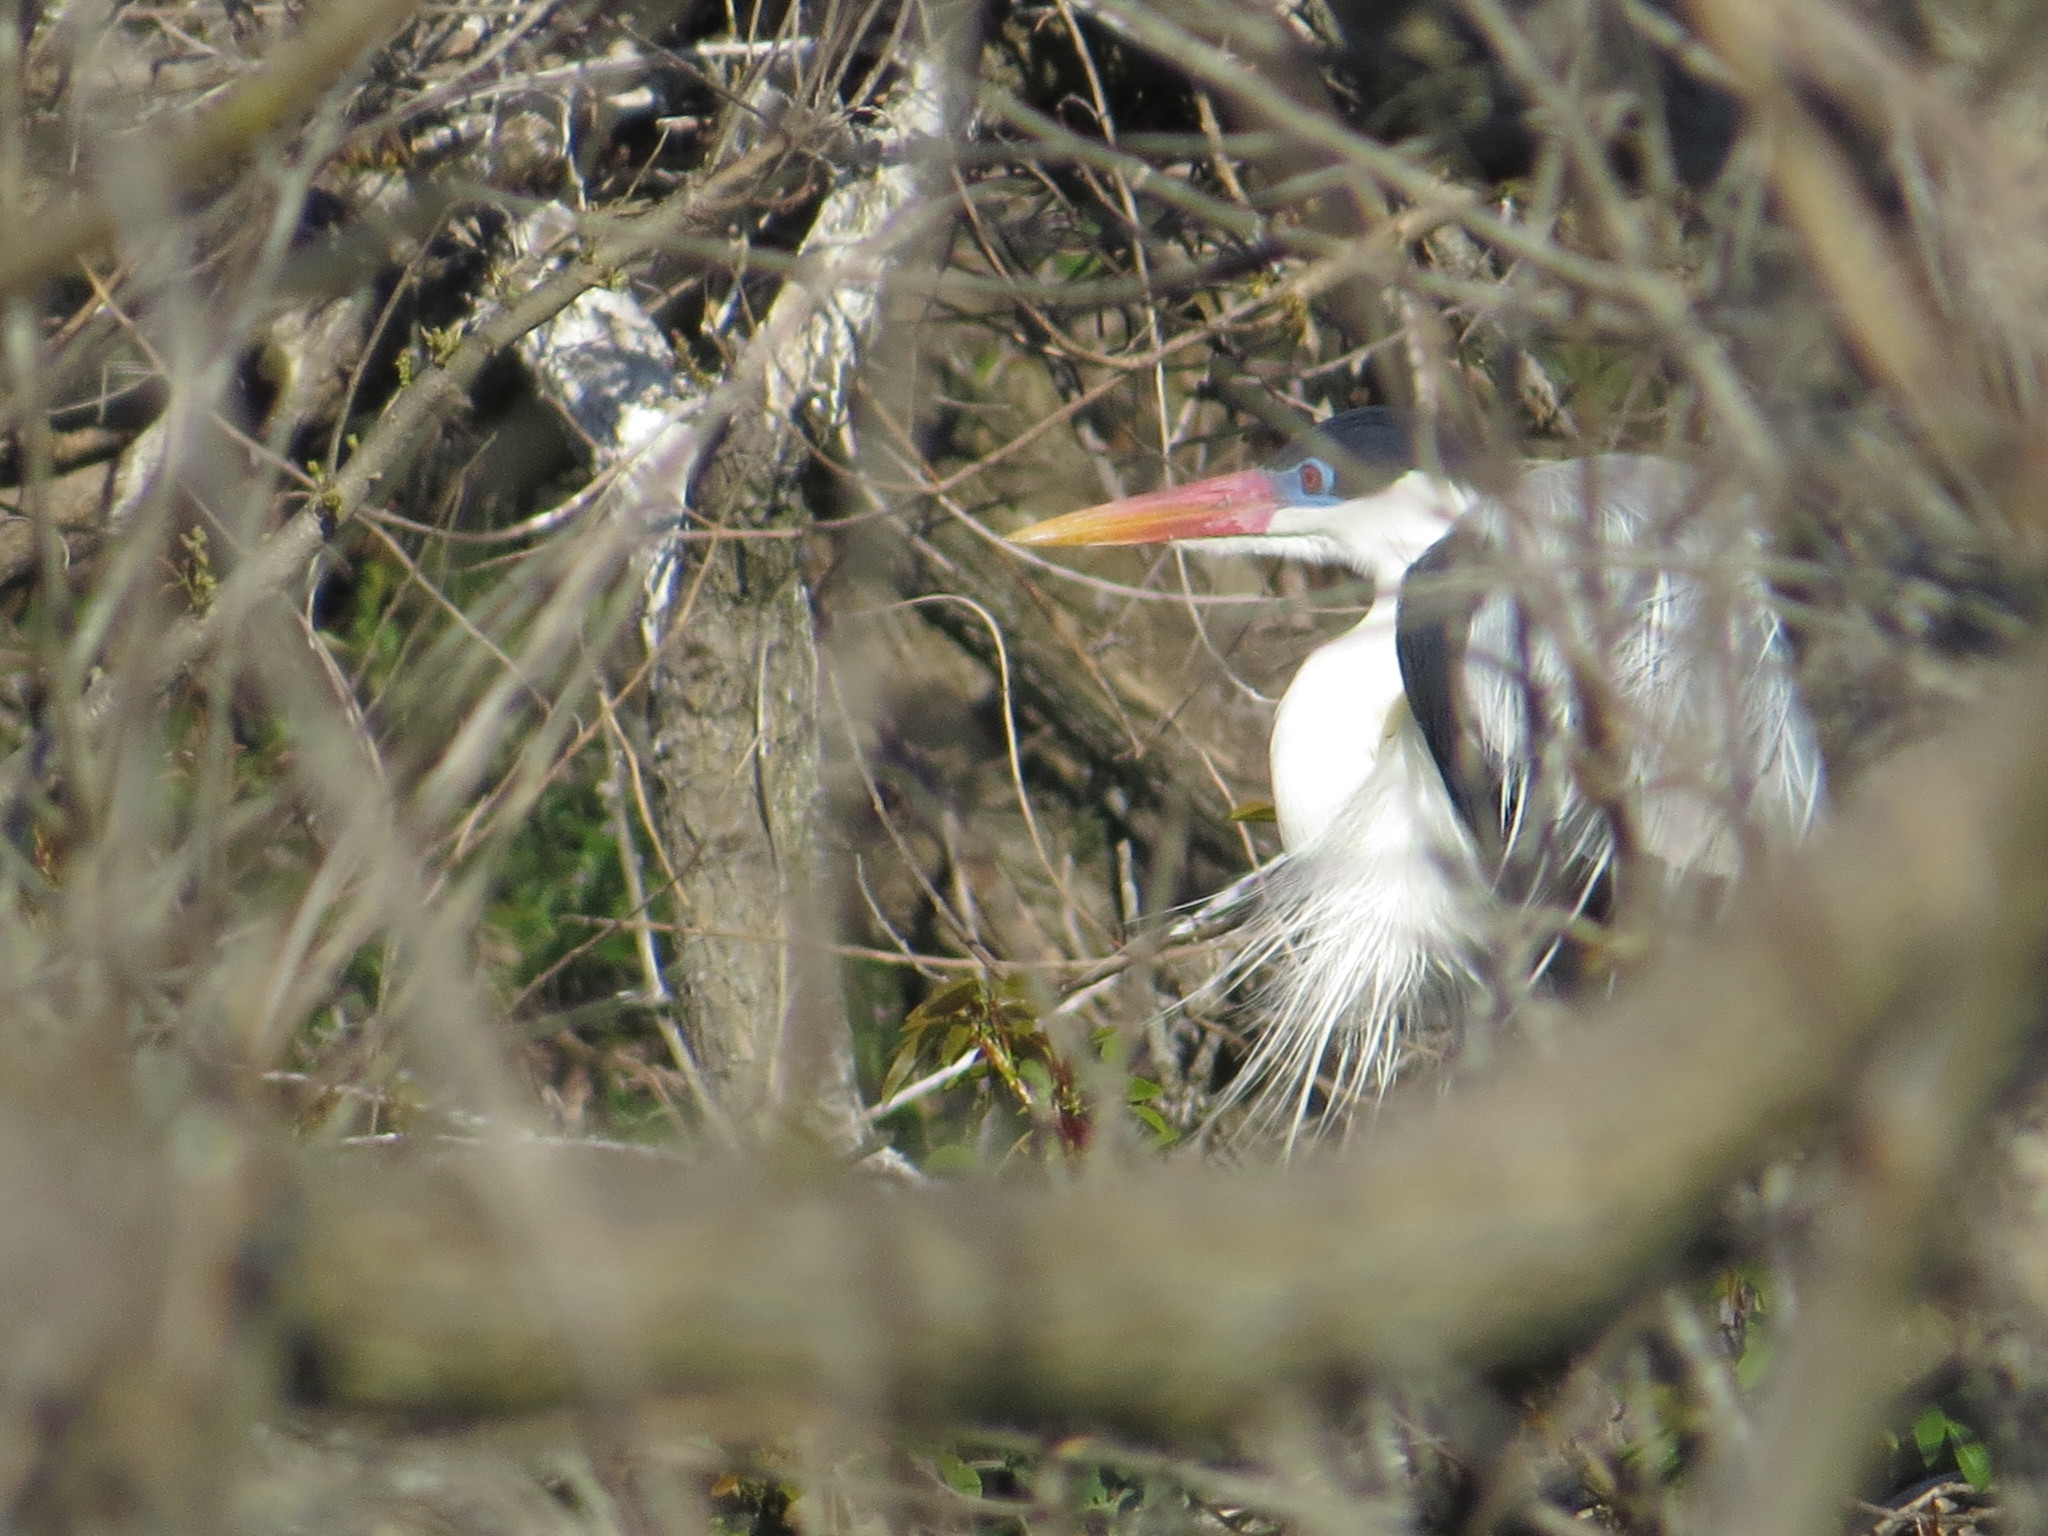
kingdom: Animalia
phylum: Chordata
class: Aves
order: Pelecaniformes
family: Ardeidae
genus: Ardea
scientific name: Ardea cocoi
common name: Cocoi heron
